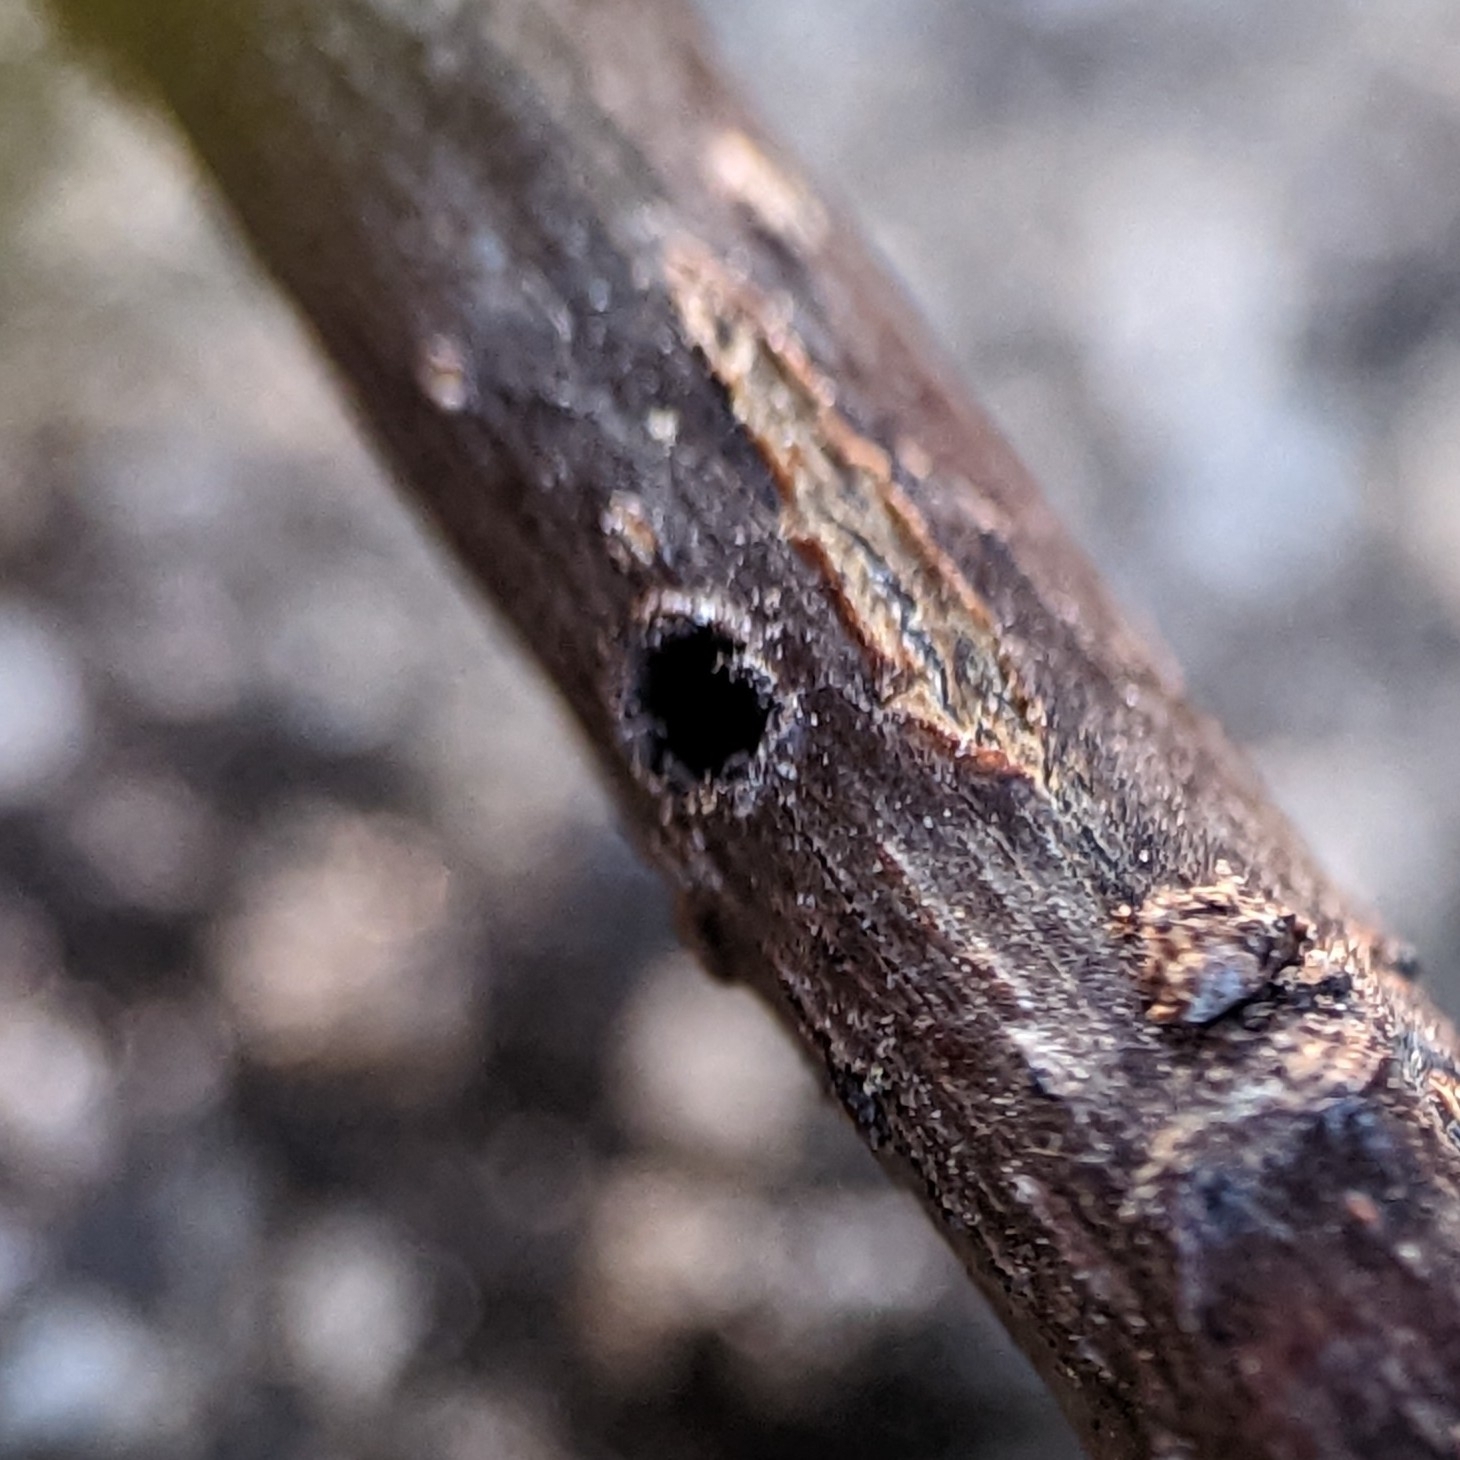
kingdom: Animalia
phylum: Arthropoda
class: Insecta
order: Coleoptera
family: Curculionidae
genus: Xylosandrus
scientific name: Xylosandrus compactus
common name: Black twig borer
